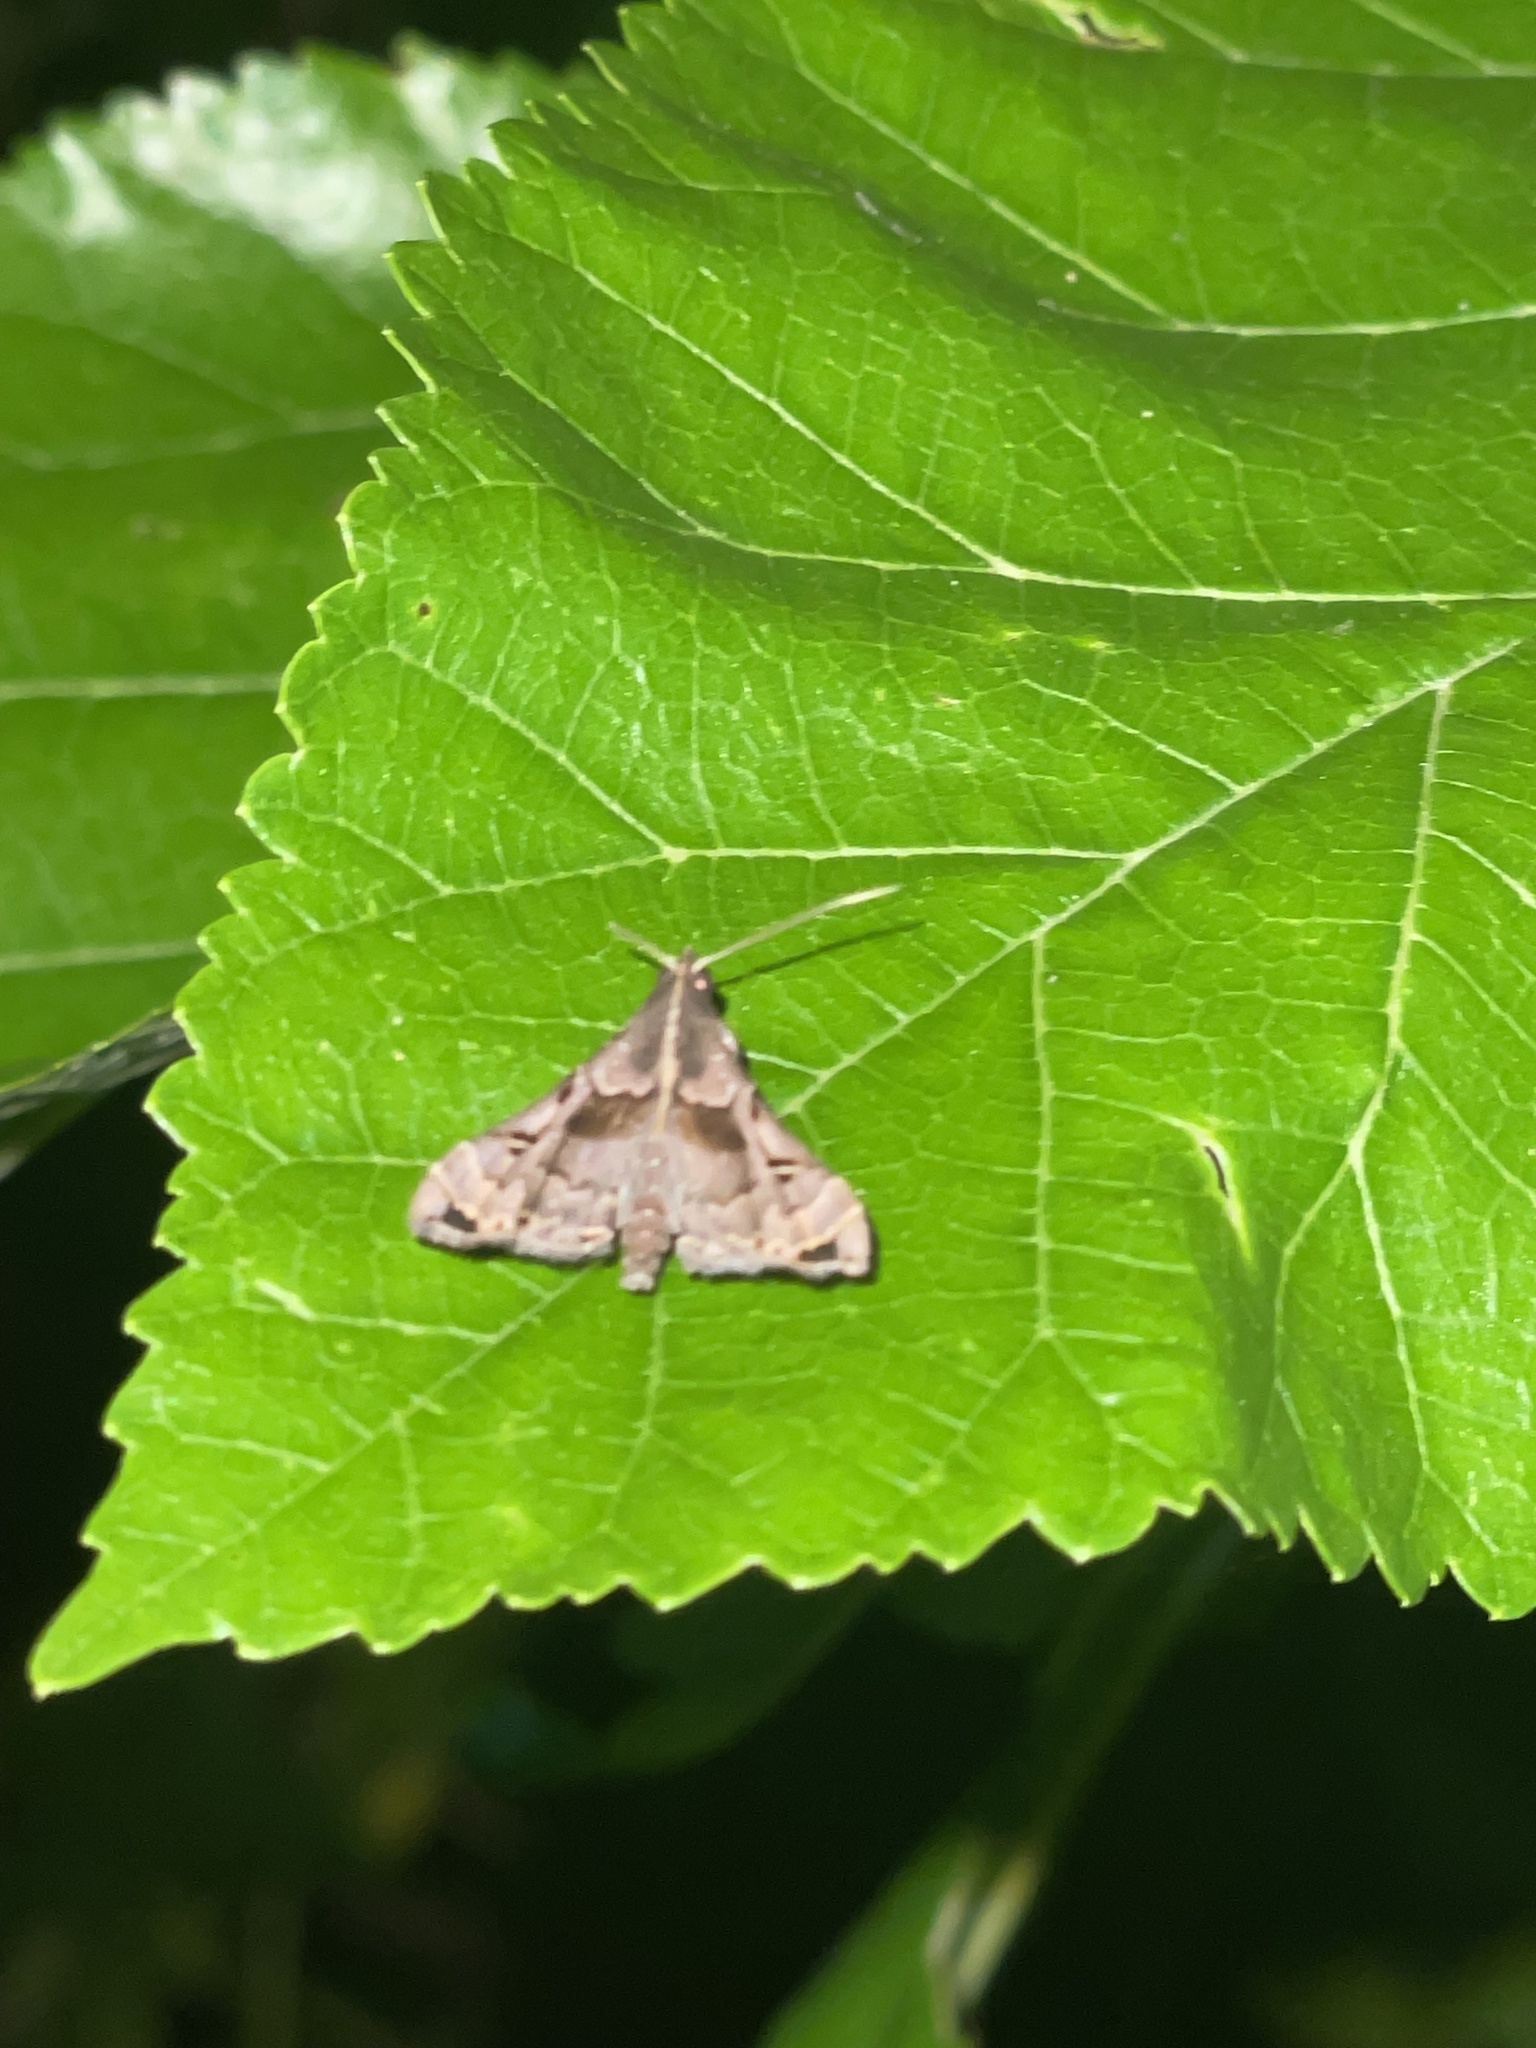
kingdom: Animalia
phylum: Arthropoda
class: Insecta
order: Lepidoptera
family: Erebidae
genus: Palthis
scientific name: Palthis asopialis
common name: Faint-spotted palthis moth
